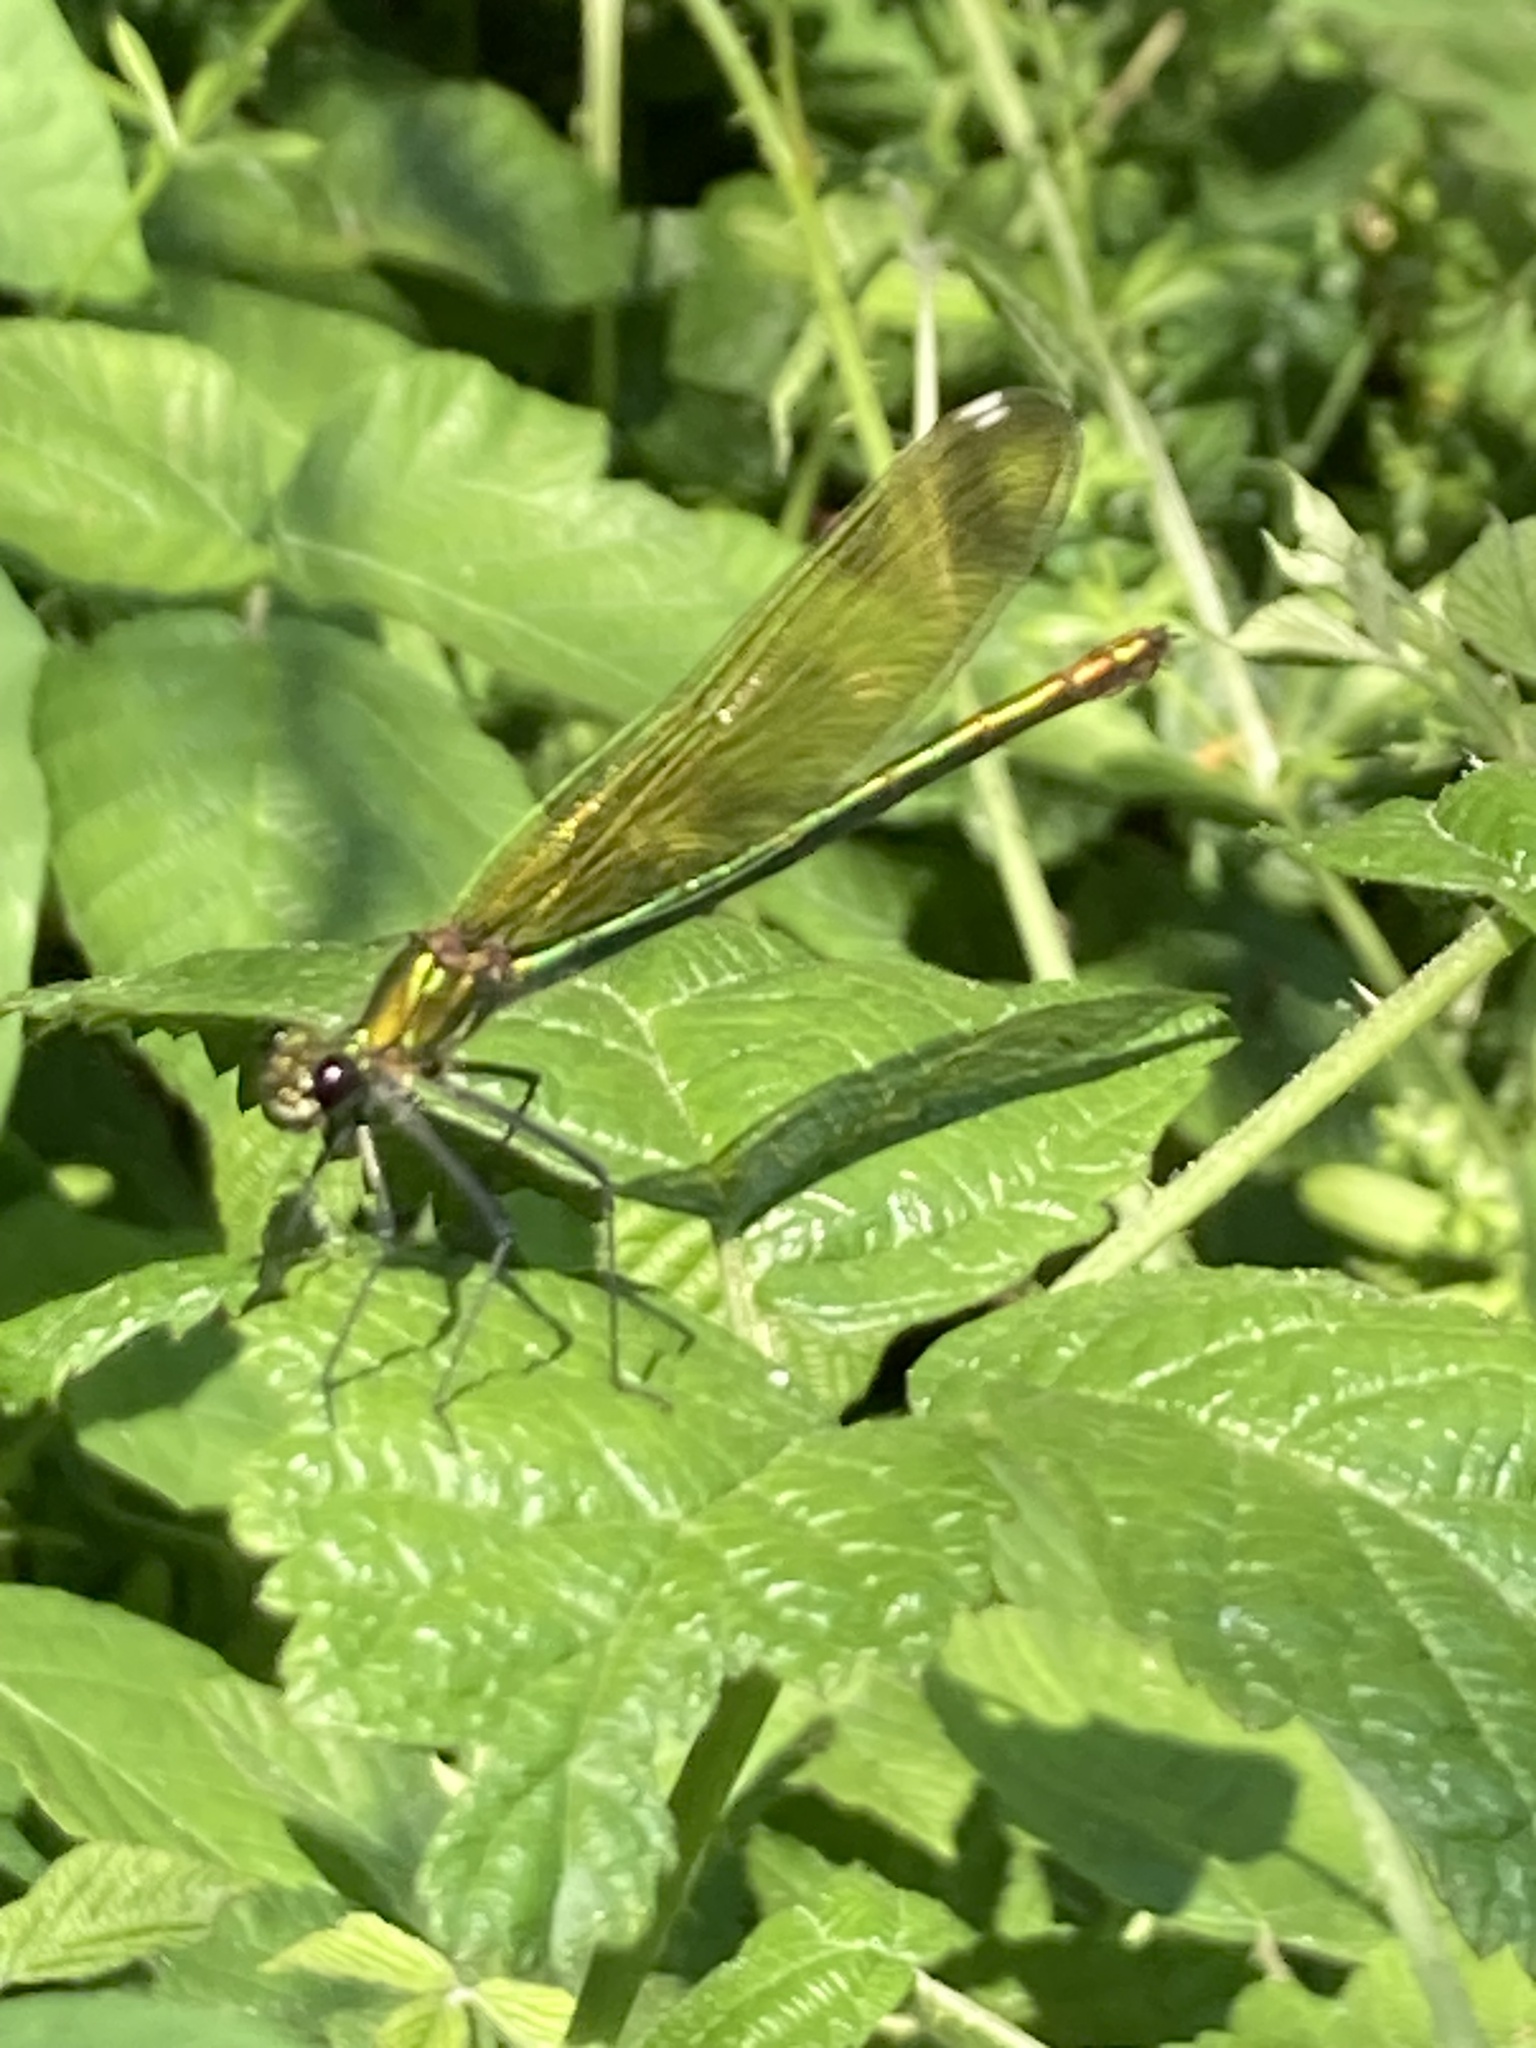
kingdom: Animalia
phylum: Arthropoda
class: Insecta
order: Odonata
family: Calopterygidae
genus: Calopteryx
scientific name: Calopteryx splendens
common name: Banded demoiselle
